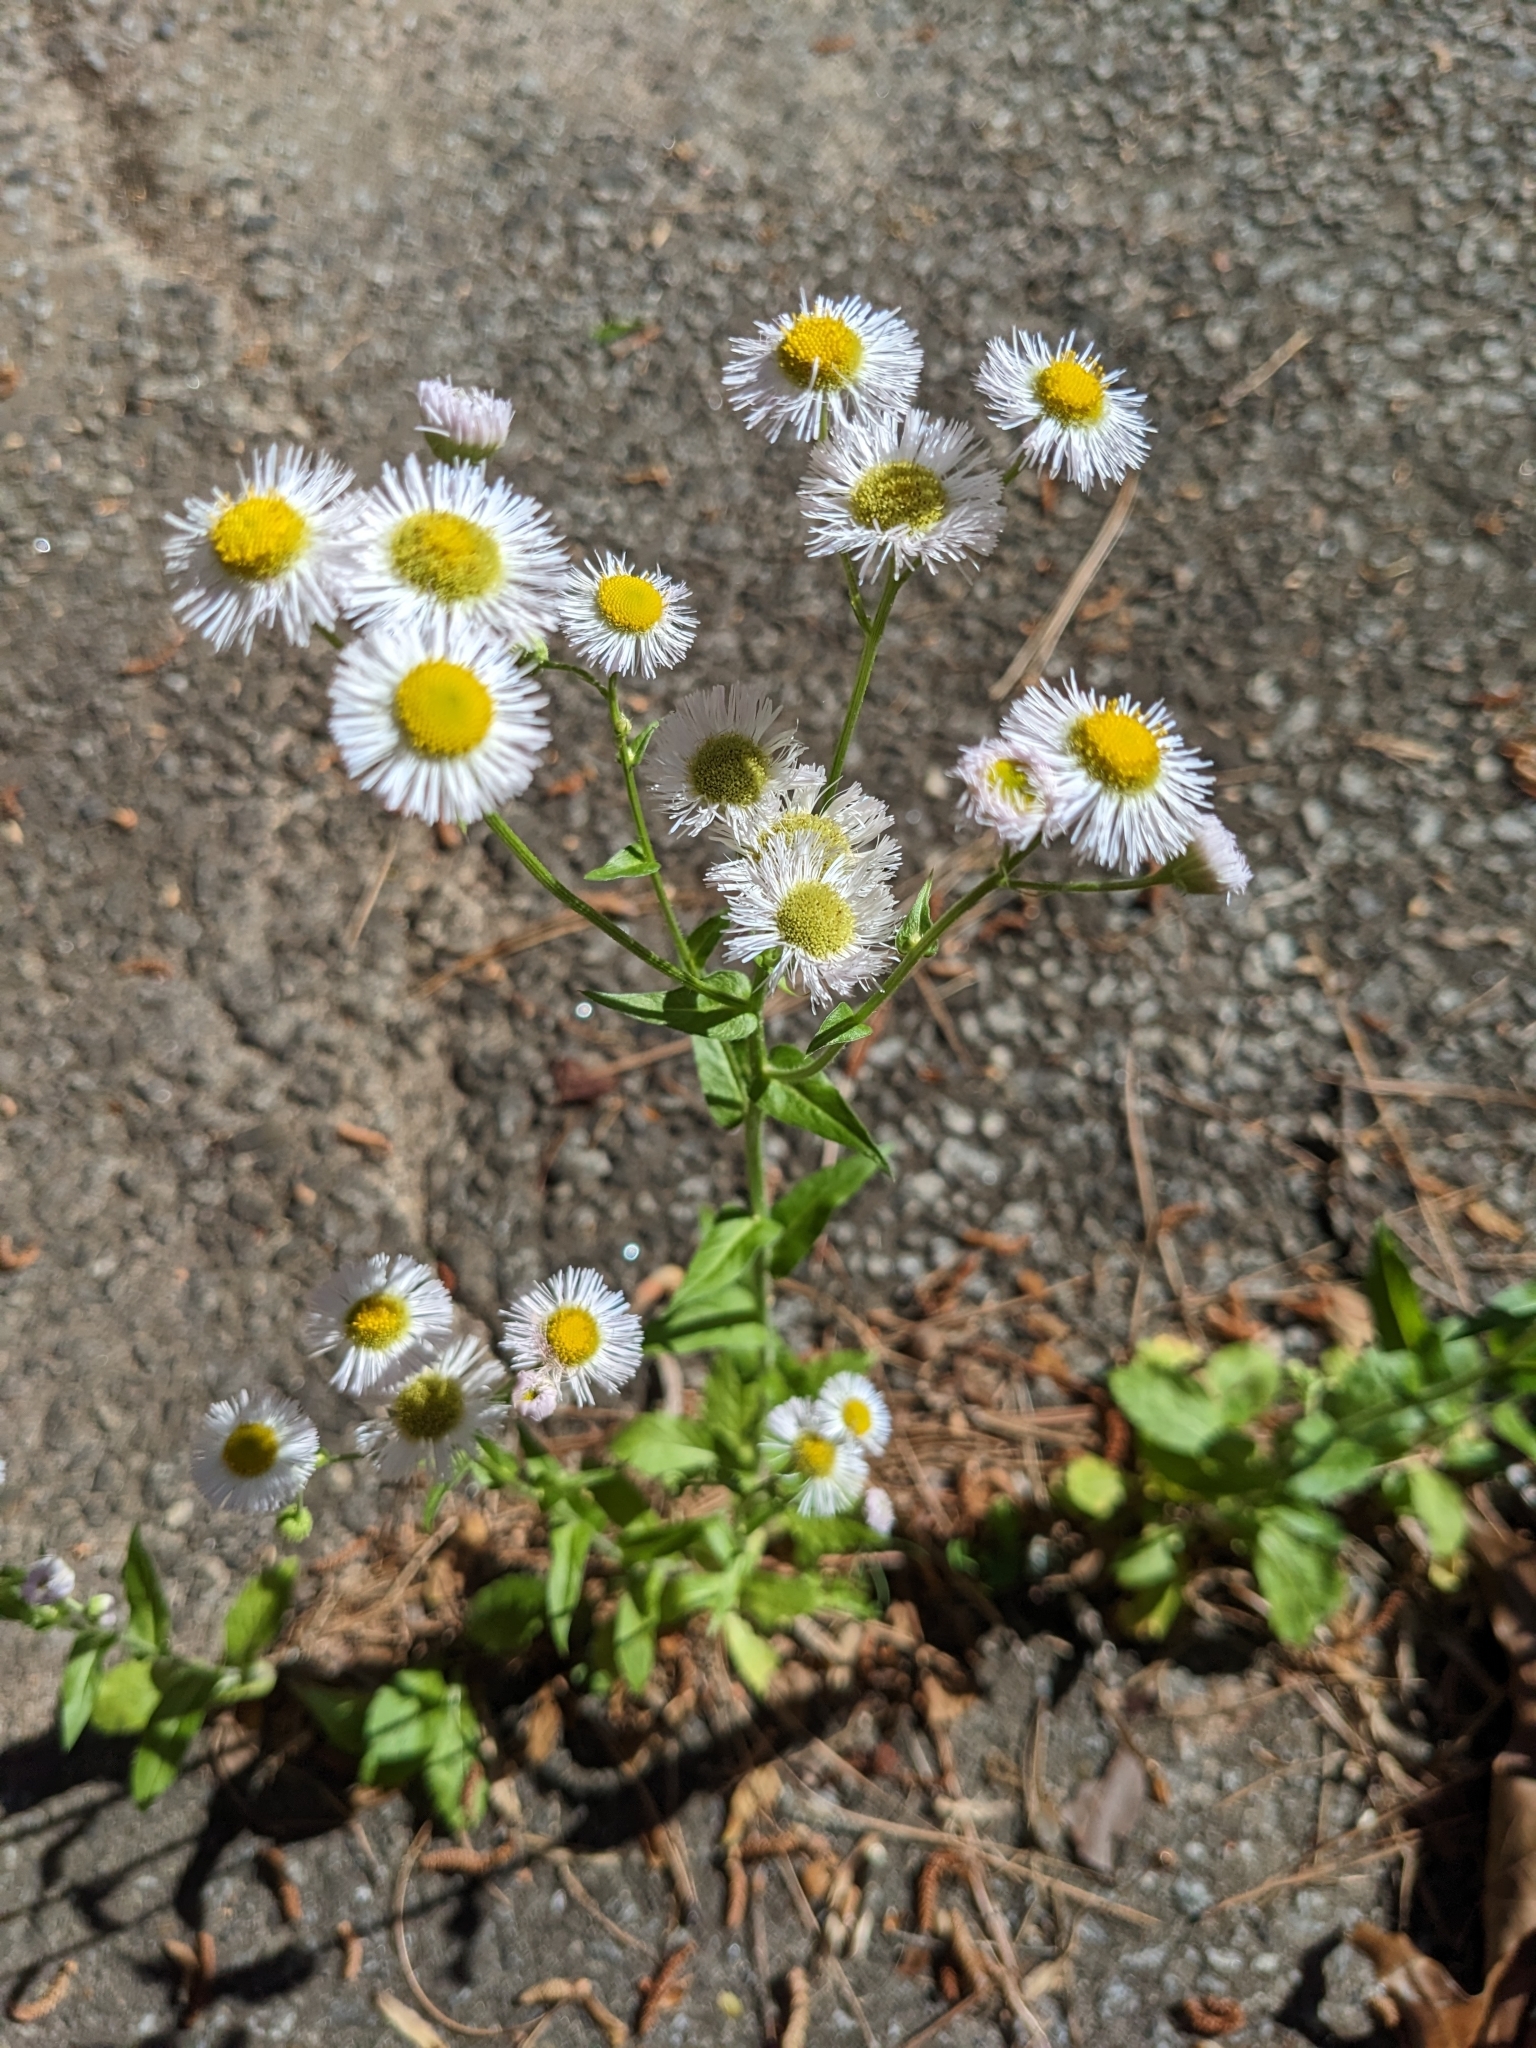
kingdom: Plantae
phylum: Tracheophyta
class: Magnoliopsida
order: Asterales
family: Asteraceae
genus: Erigeron
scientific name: Erigeron philadelphicus
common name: Robin's-plantain
